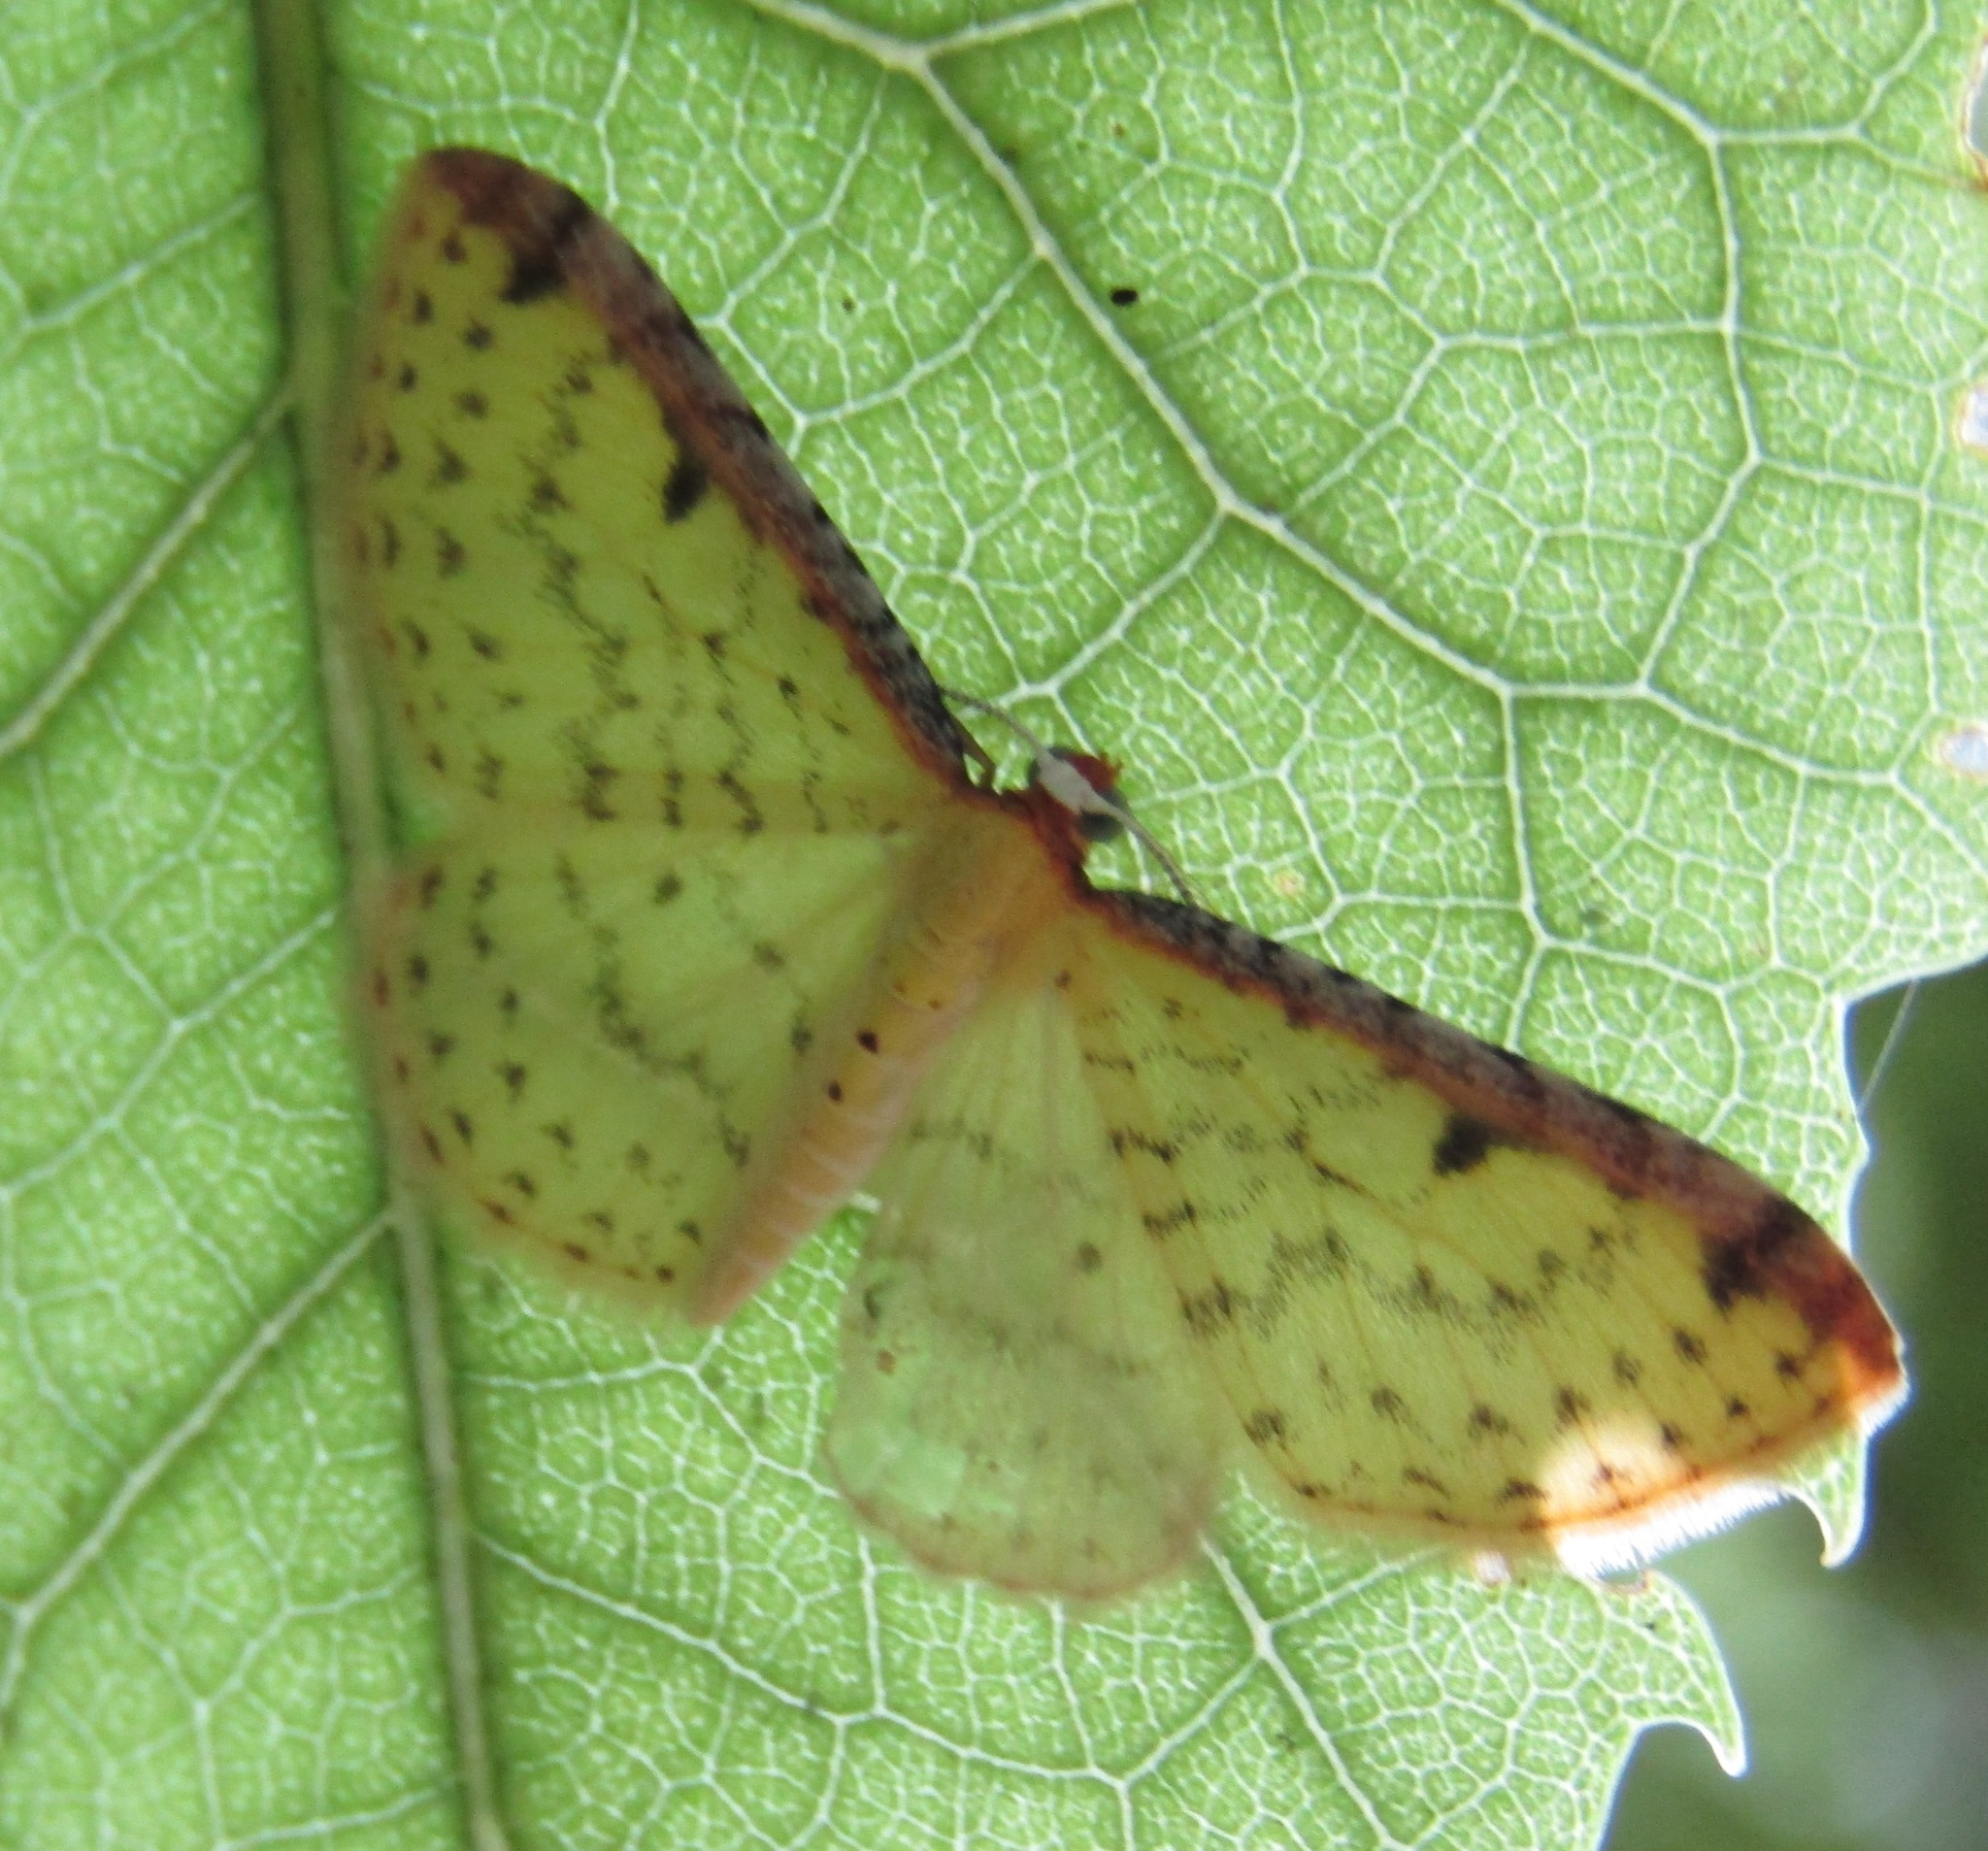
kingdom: Animalia
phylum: Arthropoda
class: Insecta
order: Lepidoptera
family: Geometridae
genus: Epiphryne
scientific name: Epiphryne undosata
